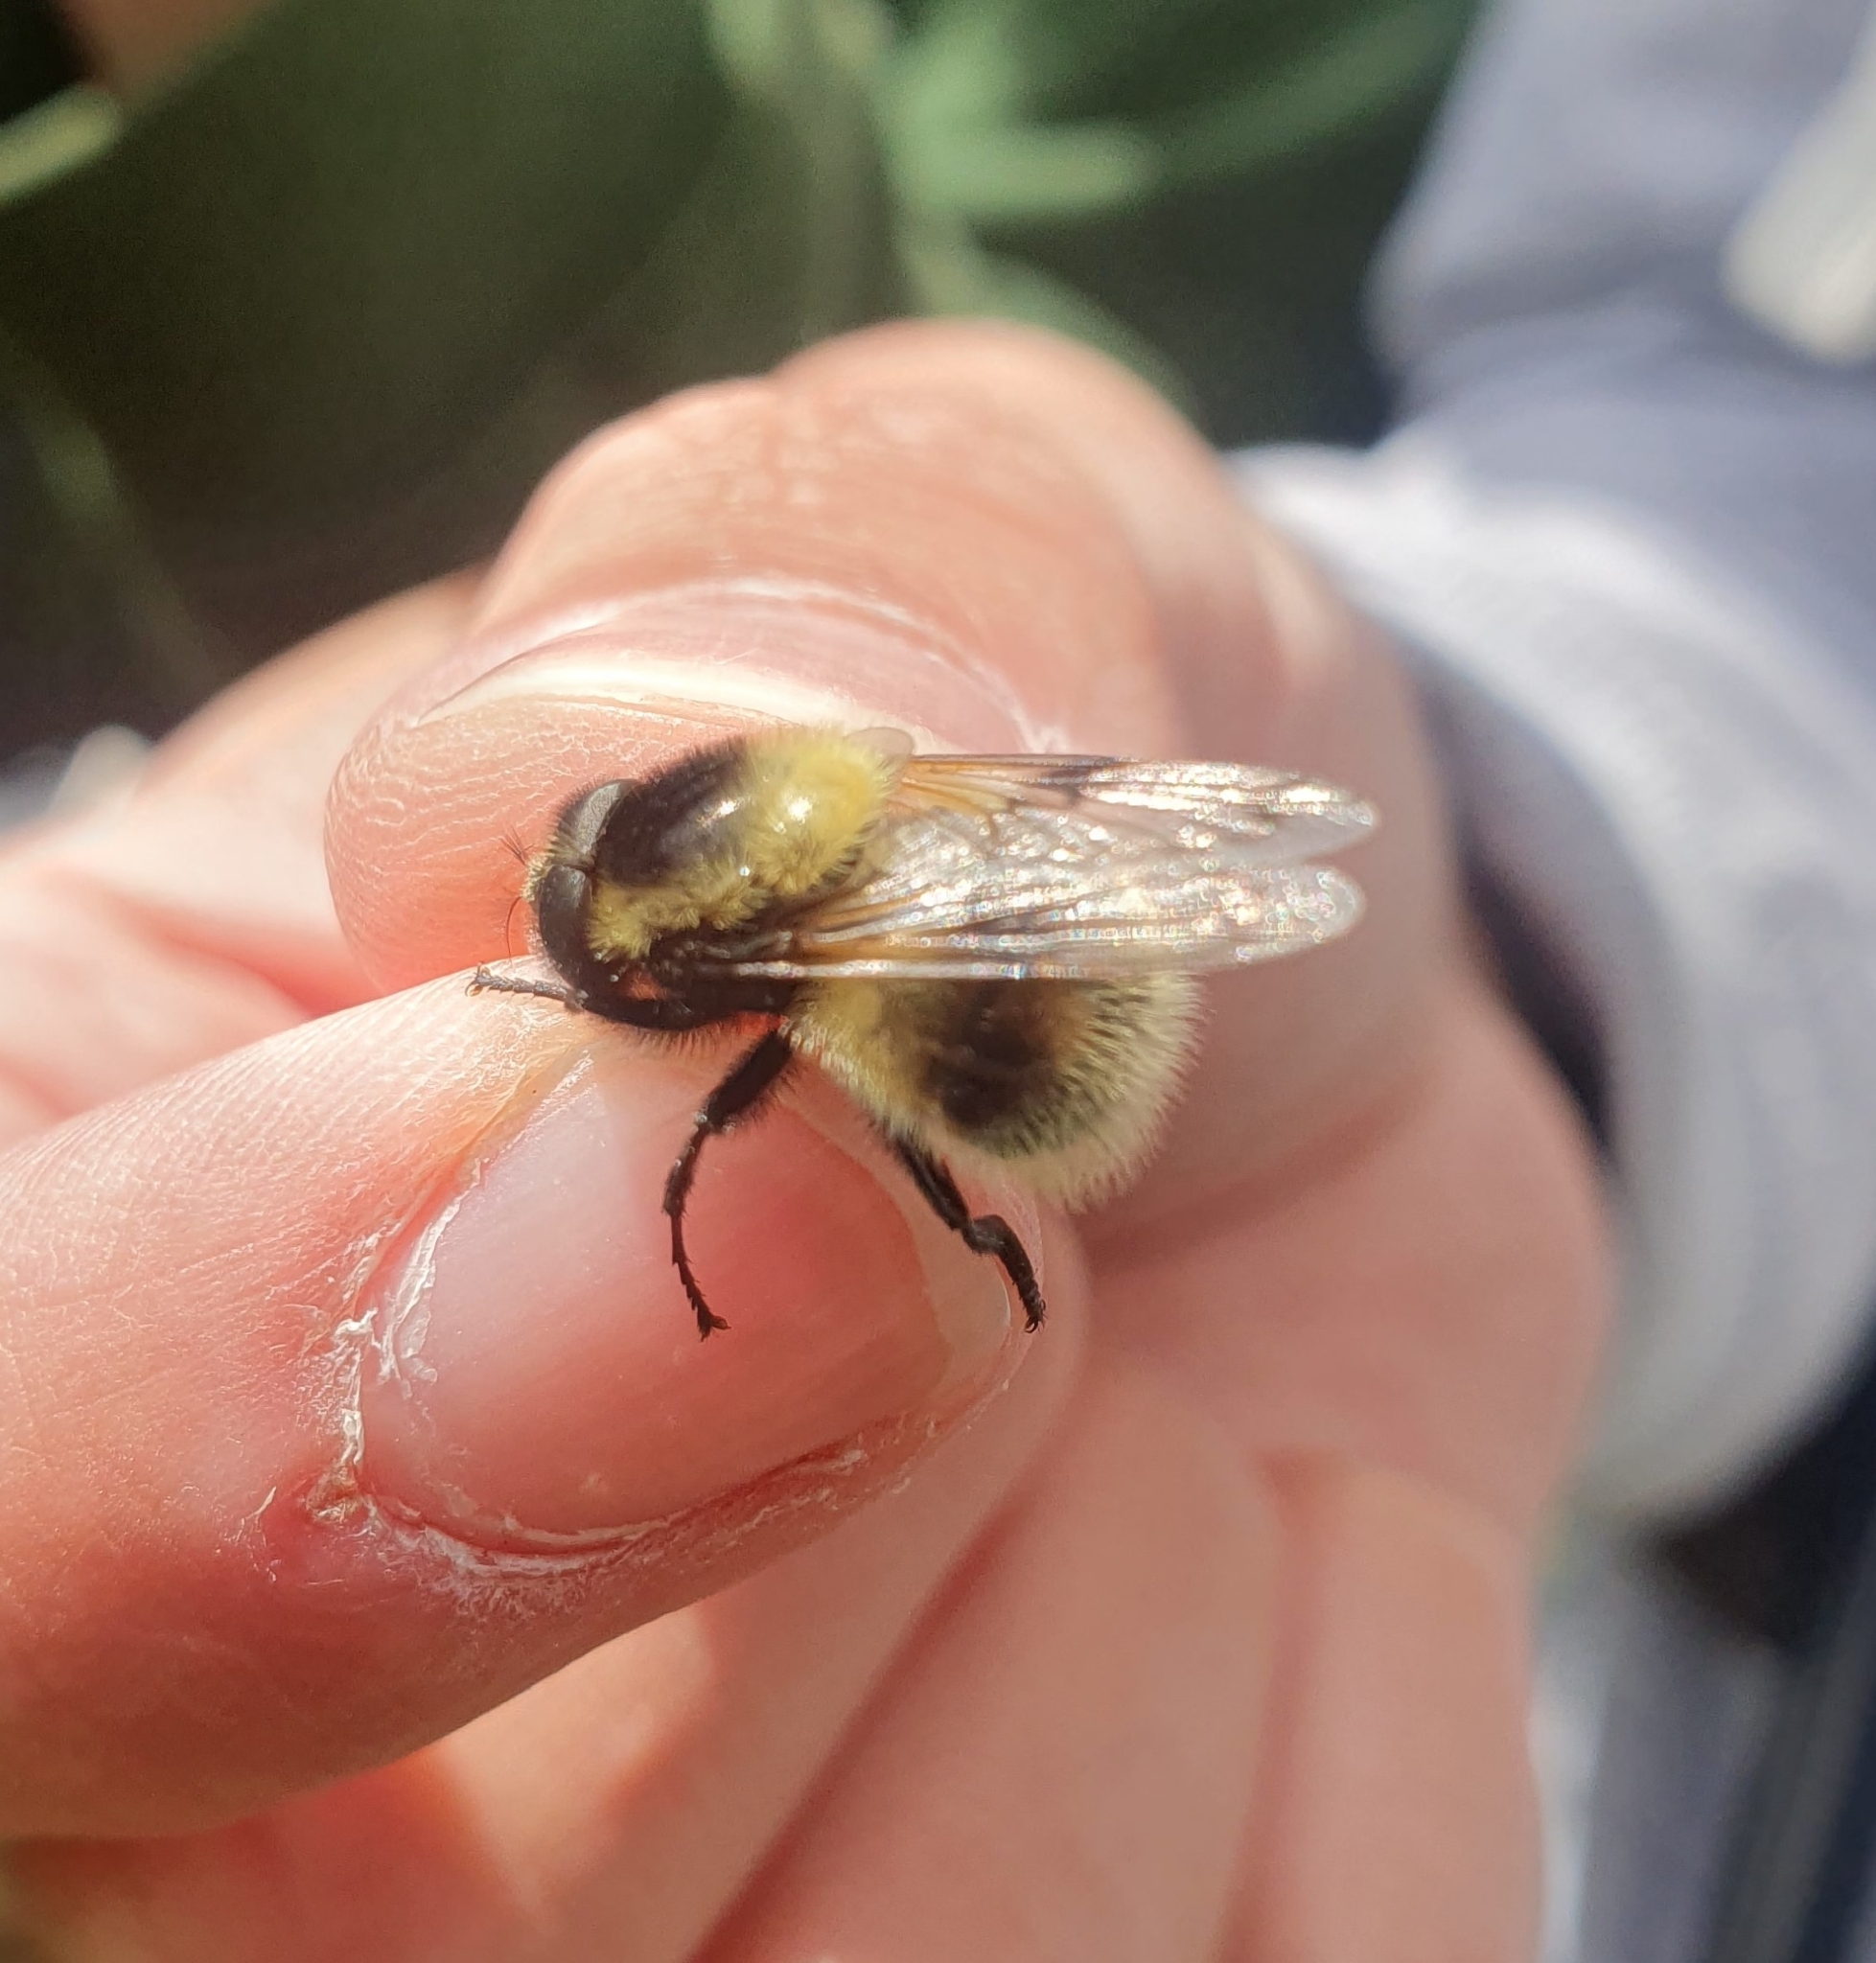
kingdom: Animalia
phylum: Arthropoda
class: Insecta
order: Diptera
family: Syrphidae
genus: Volucella
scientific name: Volucella bombylans
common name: Bumble bee hover fly
